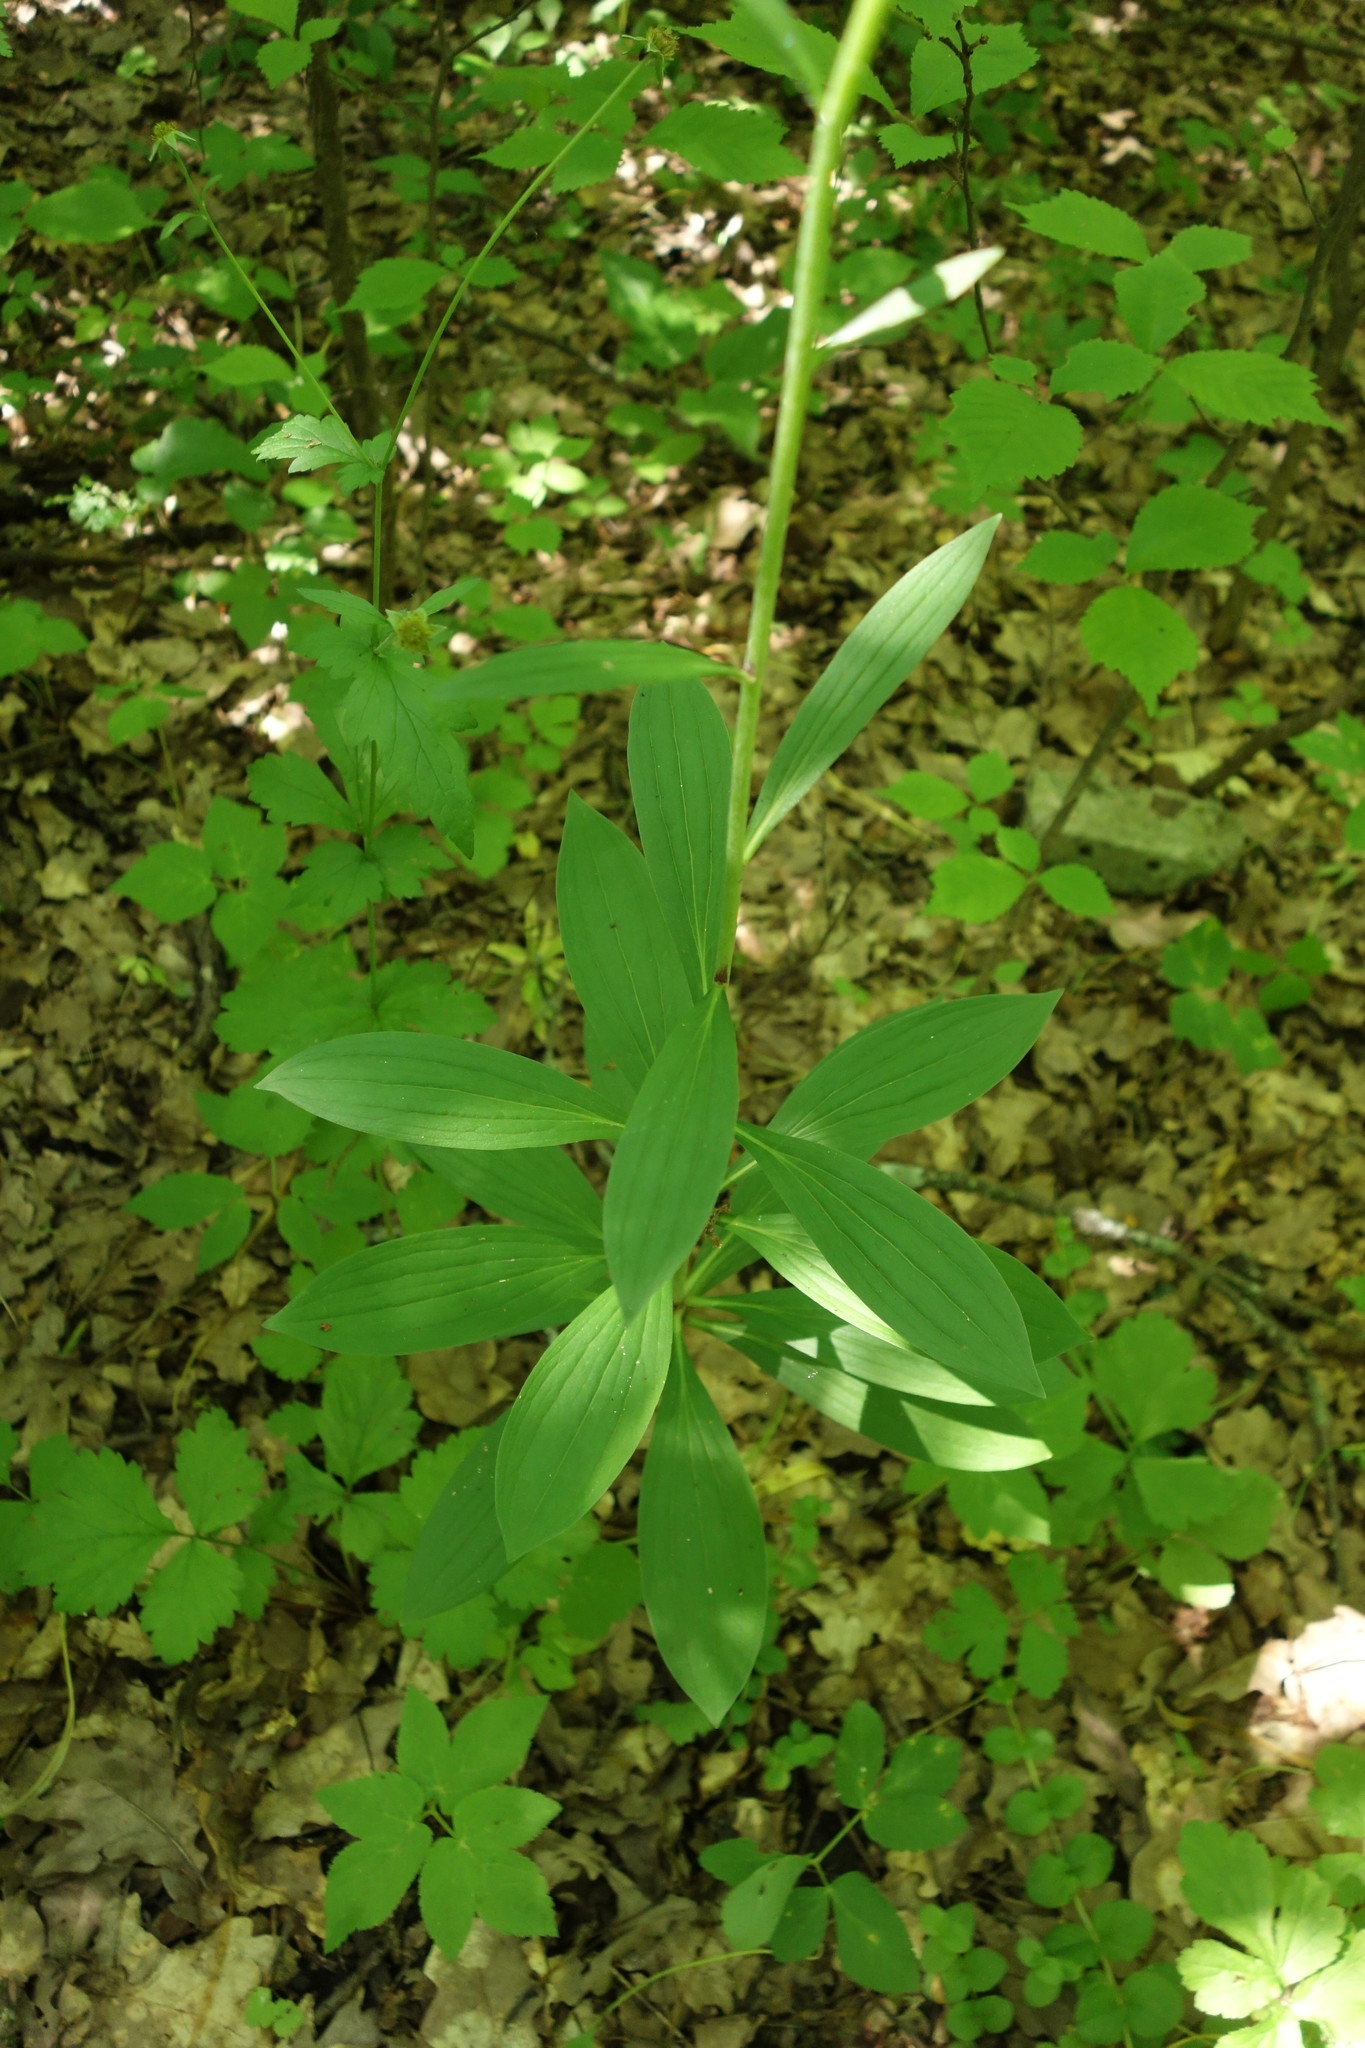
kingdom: Plantae
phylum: Tracheophyta
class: Liliopsida
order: Liliales
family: Liliaceae
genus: Lilium
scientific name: Lilium martagon
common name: Martagon lily
